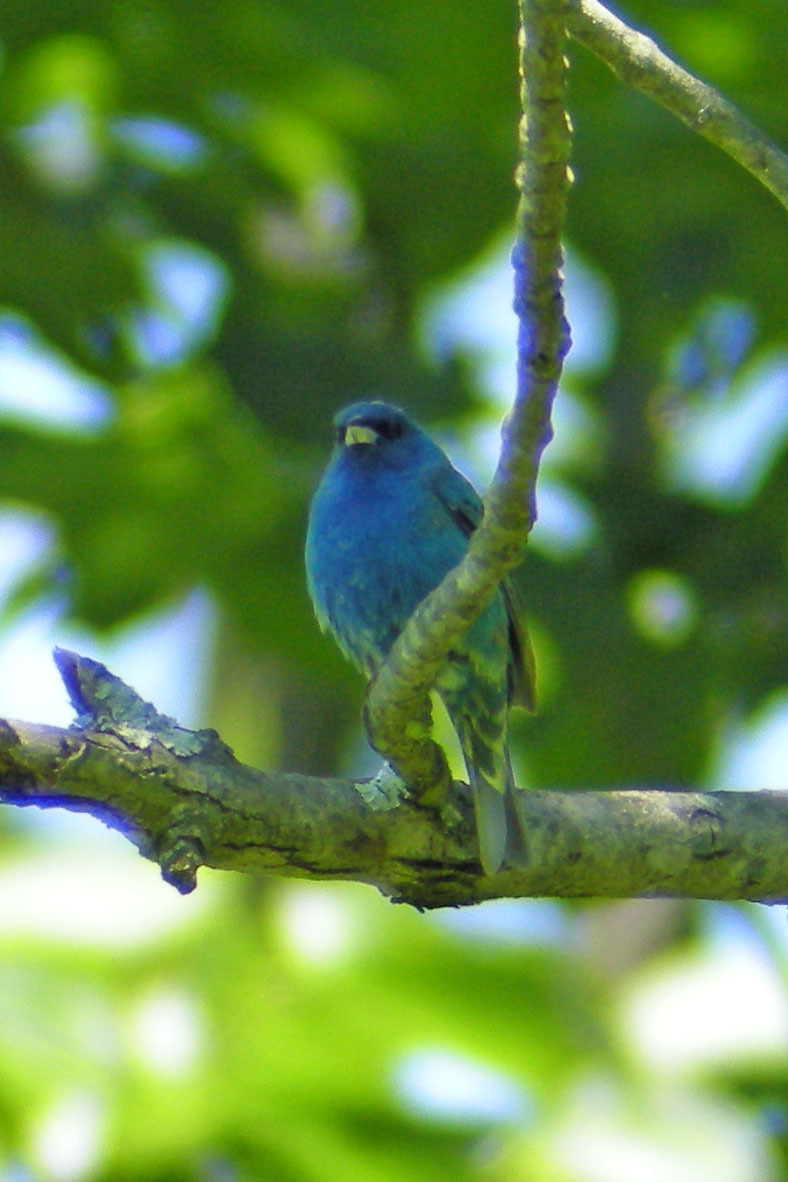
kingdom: Animalia
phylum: Chordata
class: Aves
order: Passeriformes
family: Cardinalidae
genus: Passerina
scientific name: Passerina cyanea
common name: Indigo bunting
